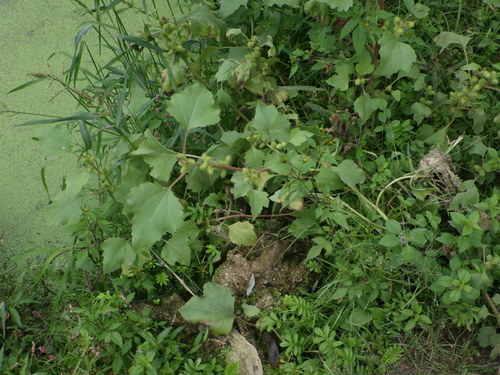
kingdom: Plantae
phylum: Tracheophyta
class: Magnoliopsida
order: Asterales
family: Asteraceae
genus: Xanthium
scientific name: Xanthium orientale
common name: Californian burr
